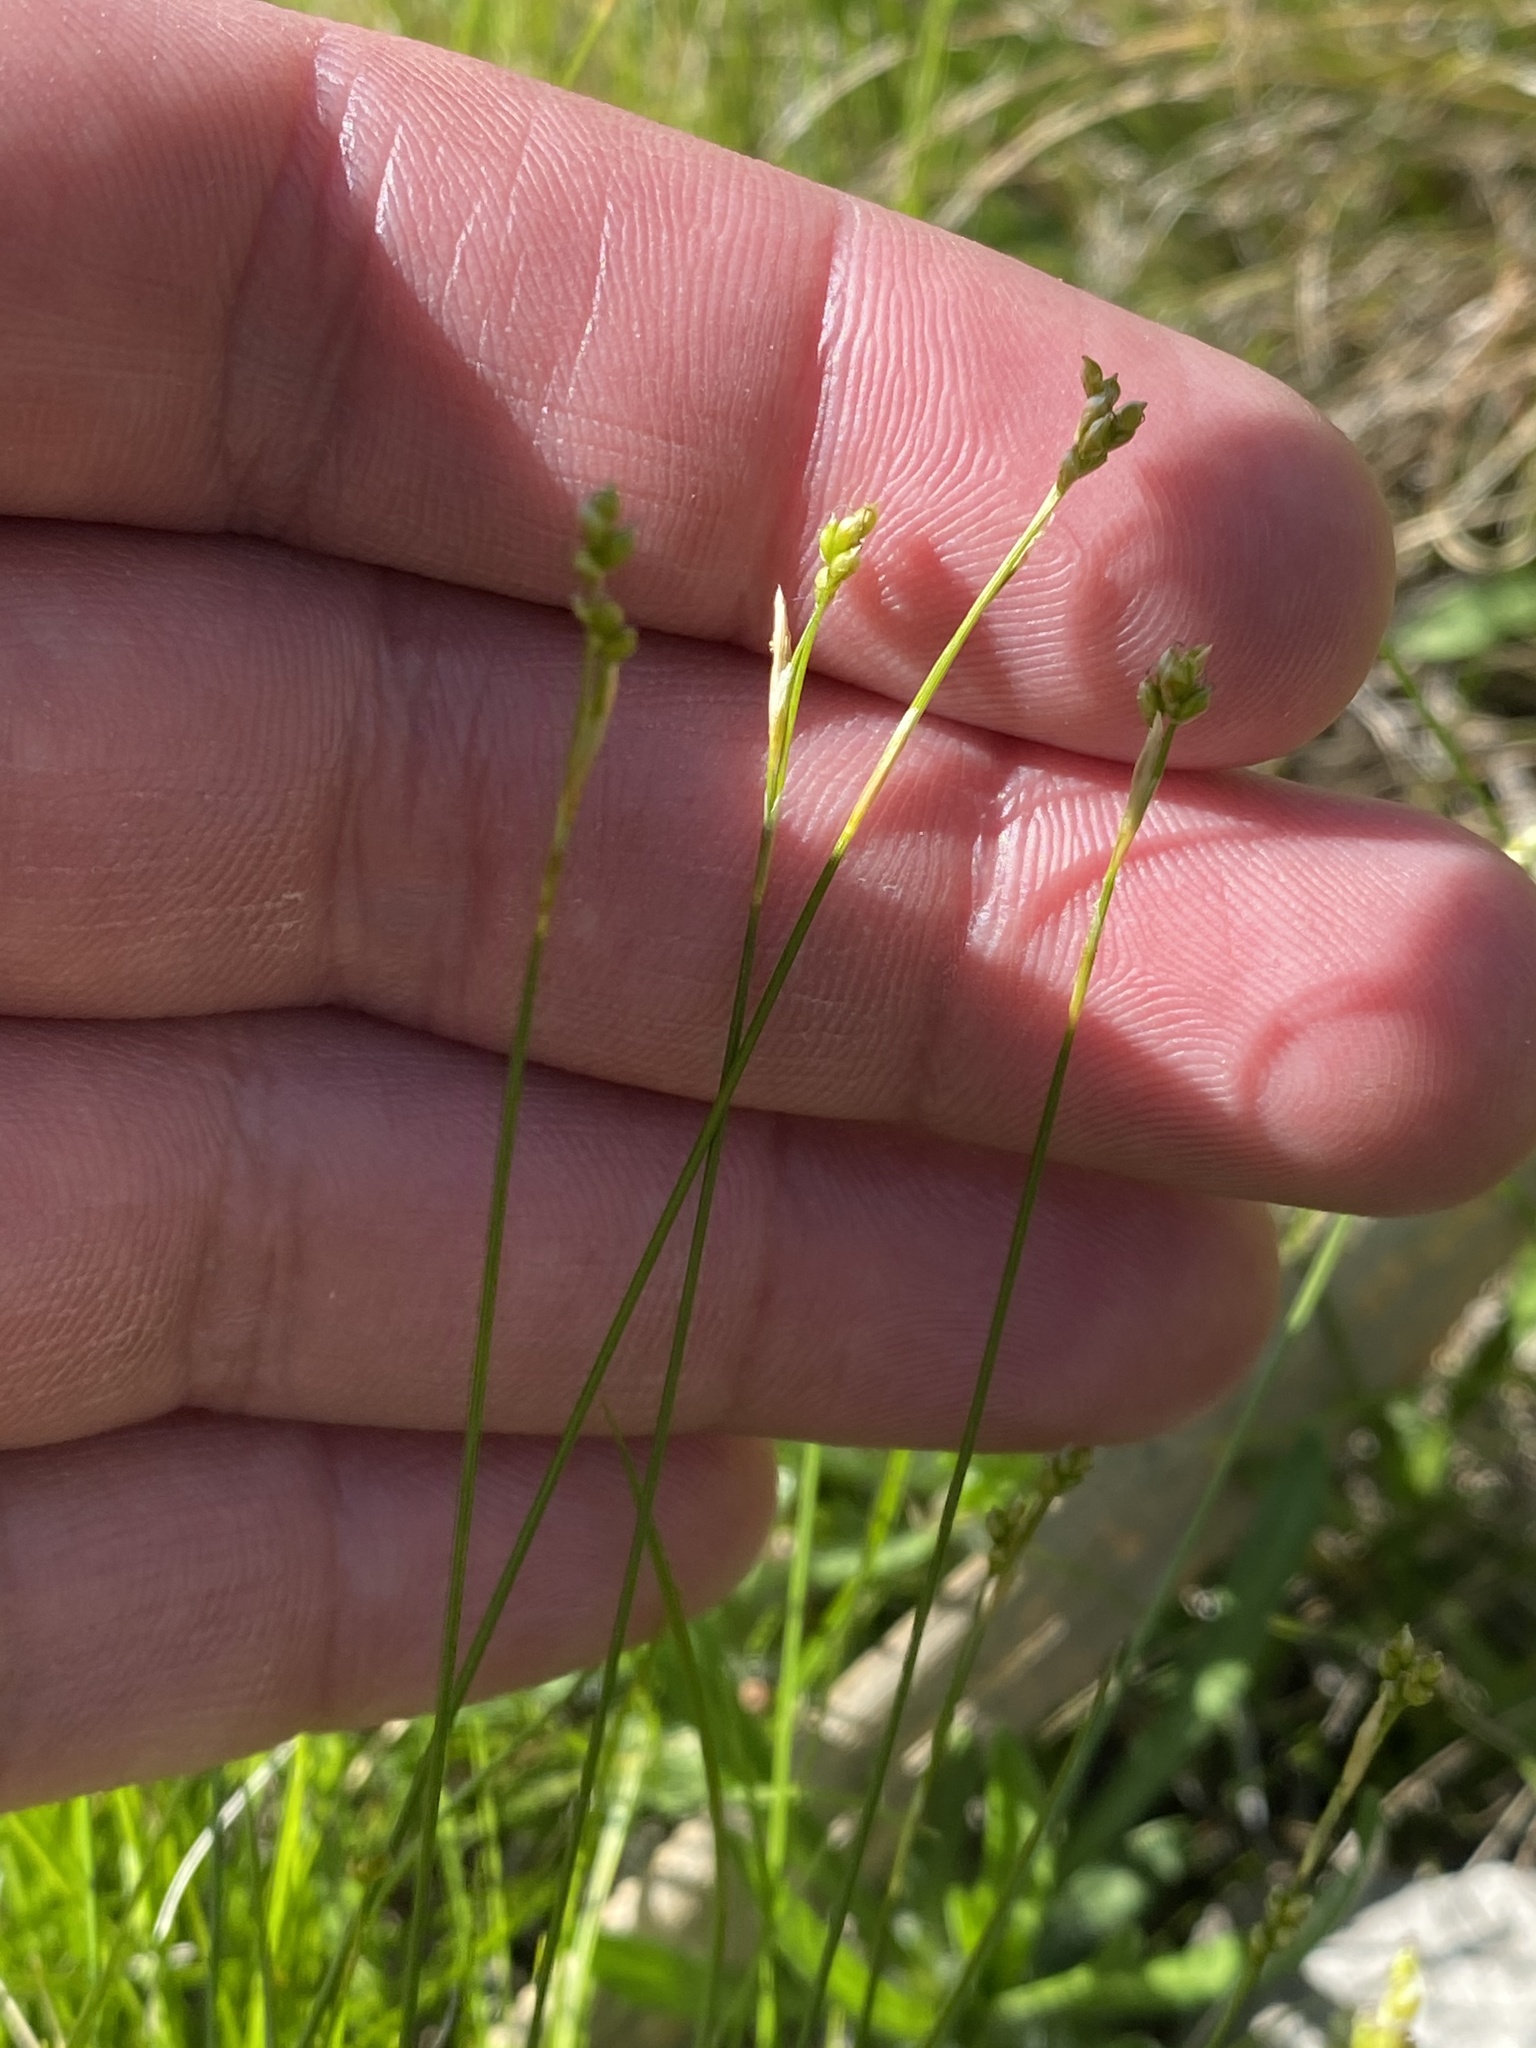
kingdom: Plantae
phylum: Tracheophyta
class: Liliopsida
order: Poales
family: Cyperaceae
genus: Carex
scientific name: Carex eburnea
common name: Bristle-leaved sedge
